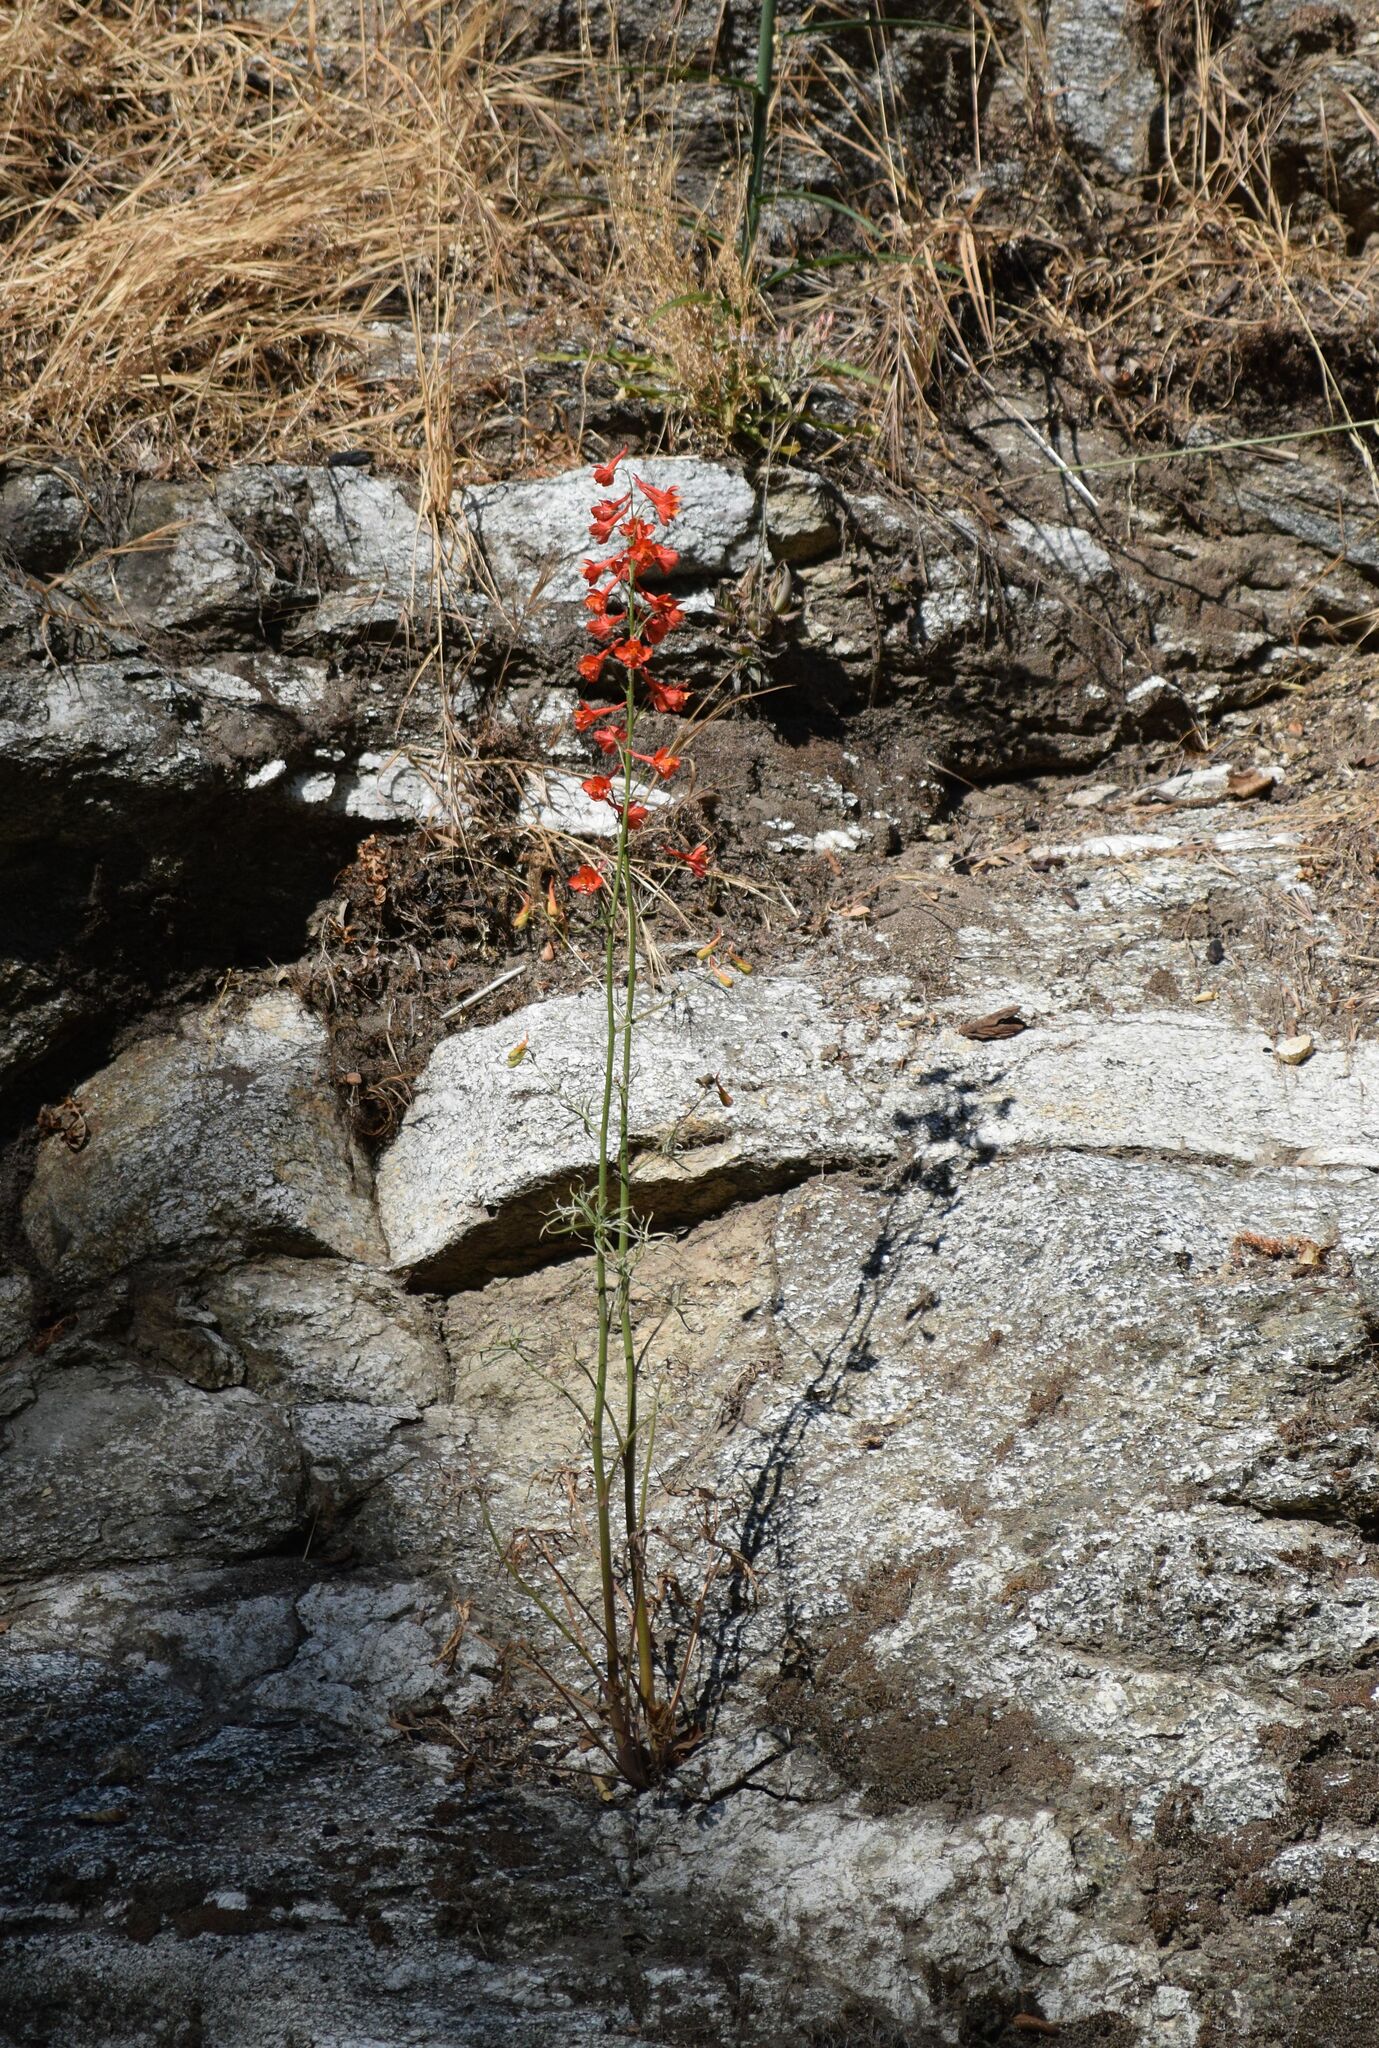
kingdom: Plantae
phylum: Tracheophyta
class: Magnoliopsida
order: Ranunculales
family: Ranunculaceae
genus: Delphinium
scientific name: Delphinium cardinale
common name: Scarlet larkspur
